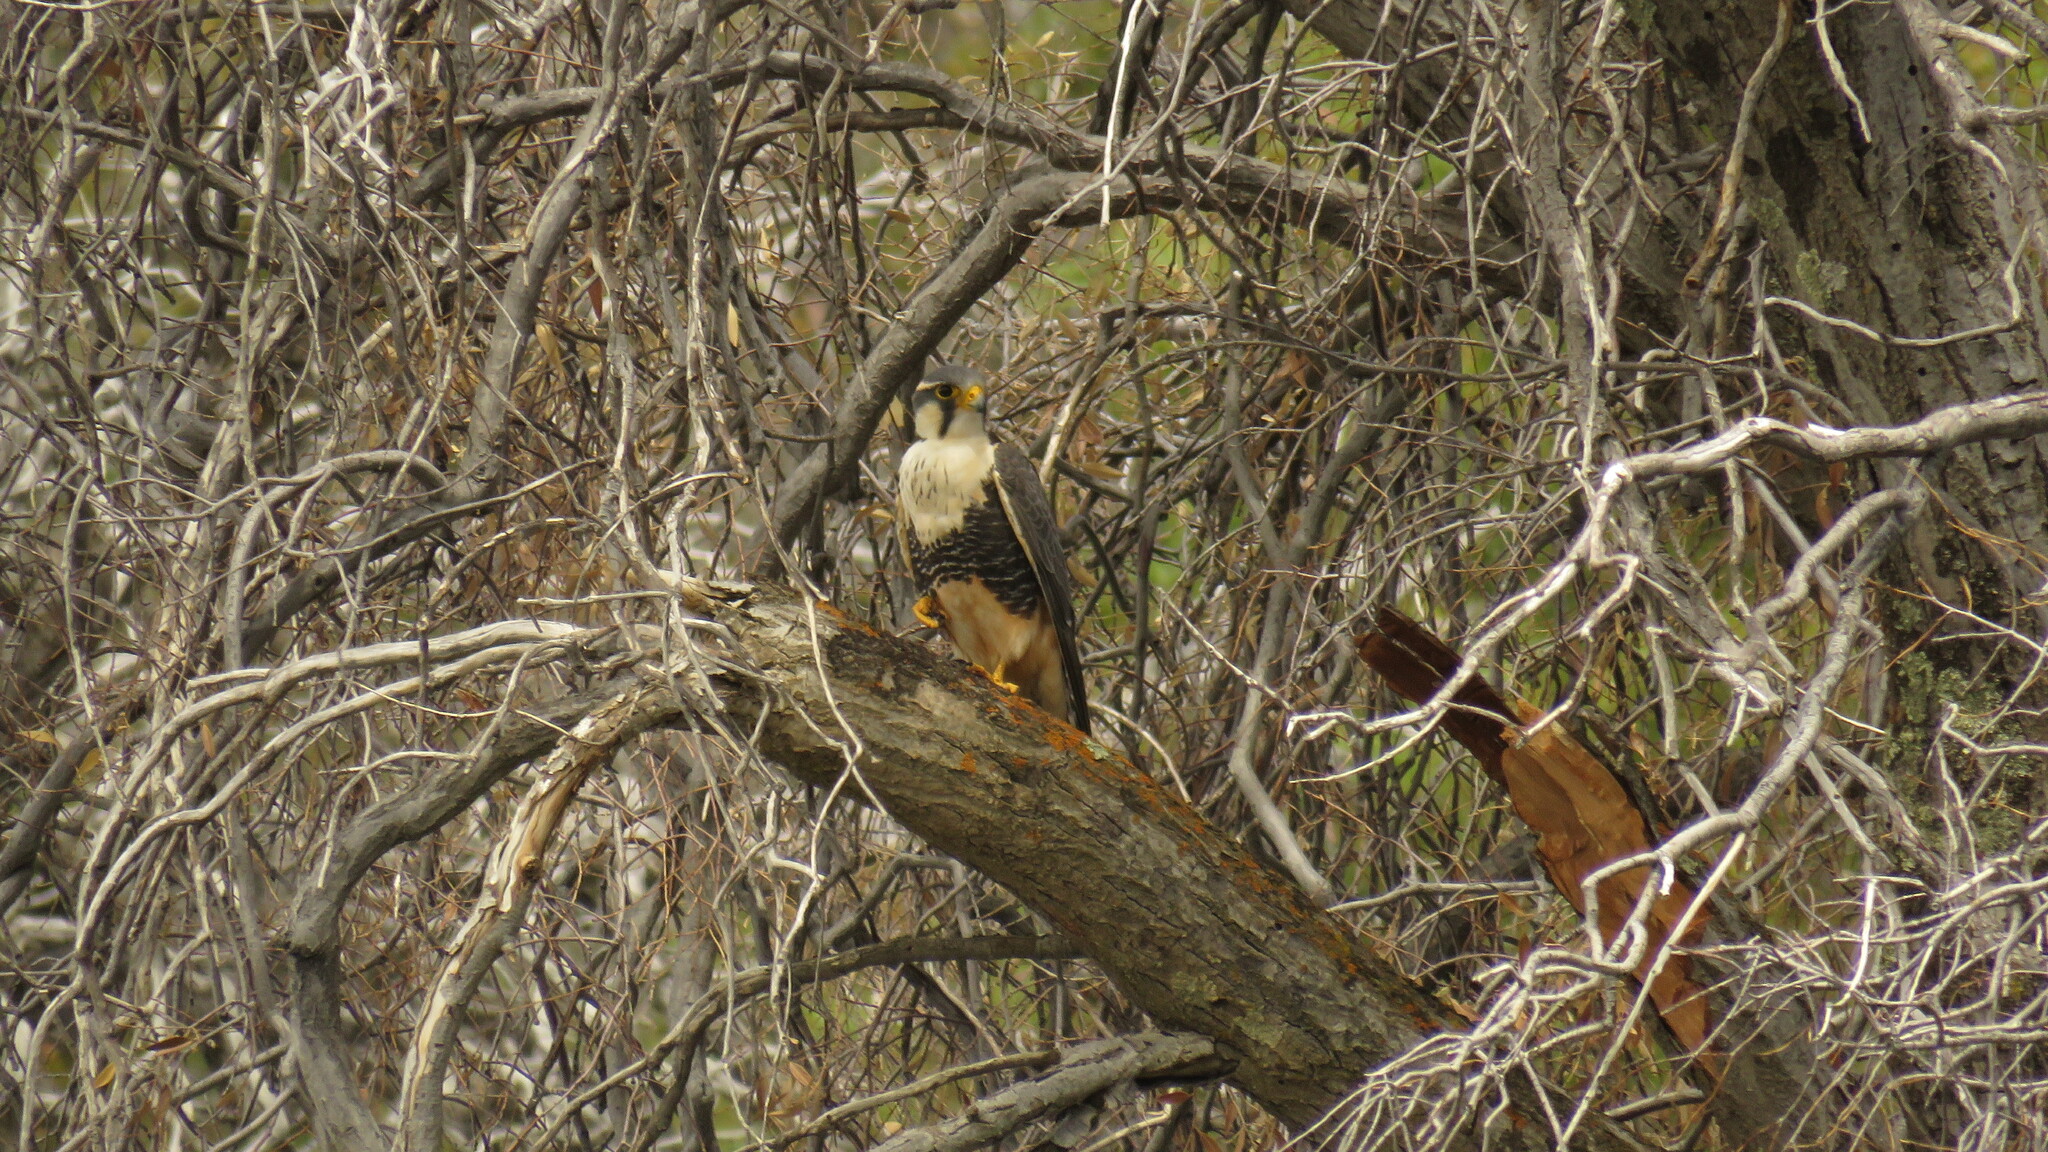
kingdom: Animalia
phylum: Chordata
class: Aves
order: Falconiformes
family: Falconidae
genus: Falco
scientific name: Falco femoralis
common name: Aplomado falcon
